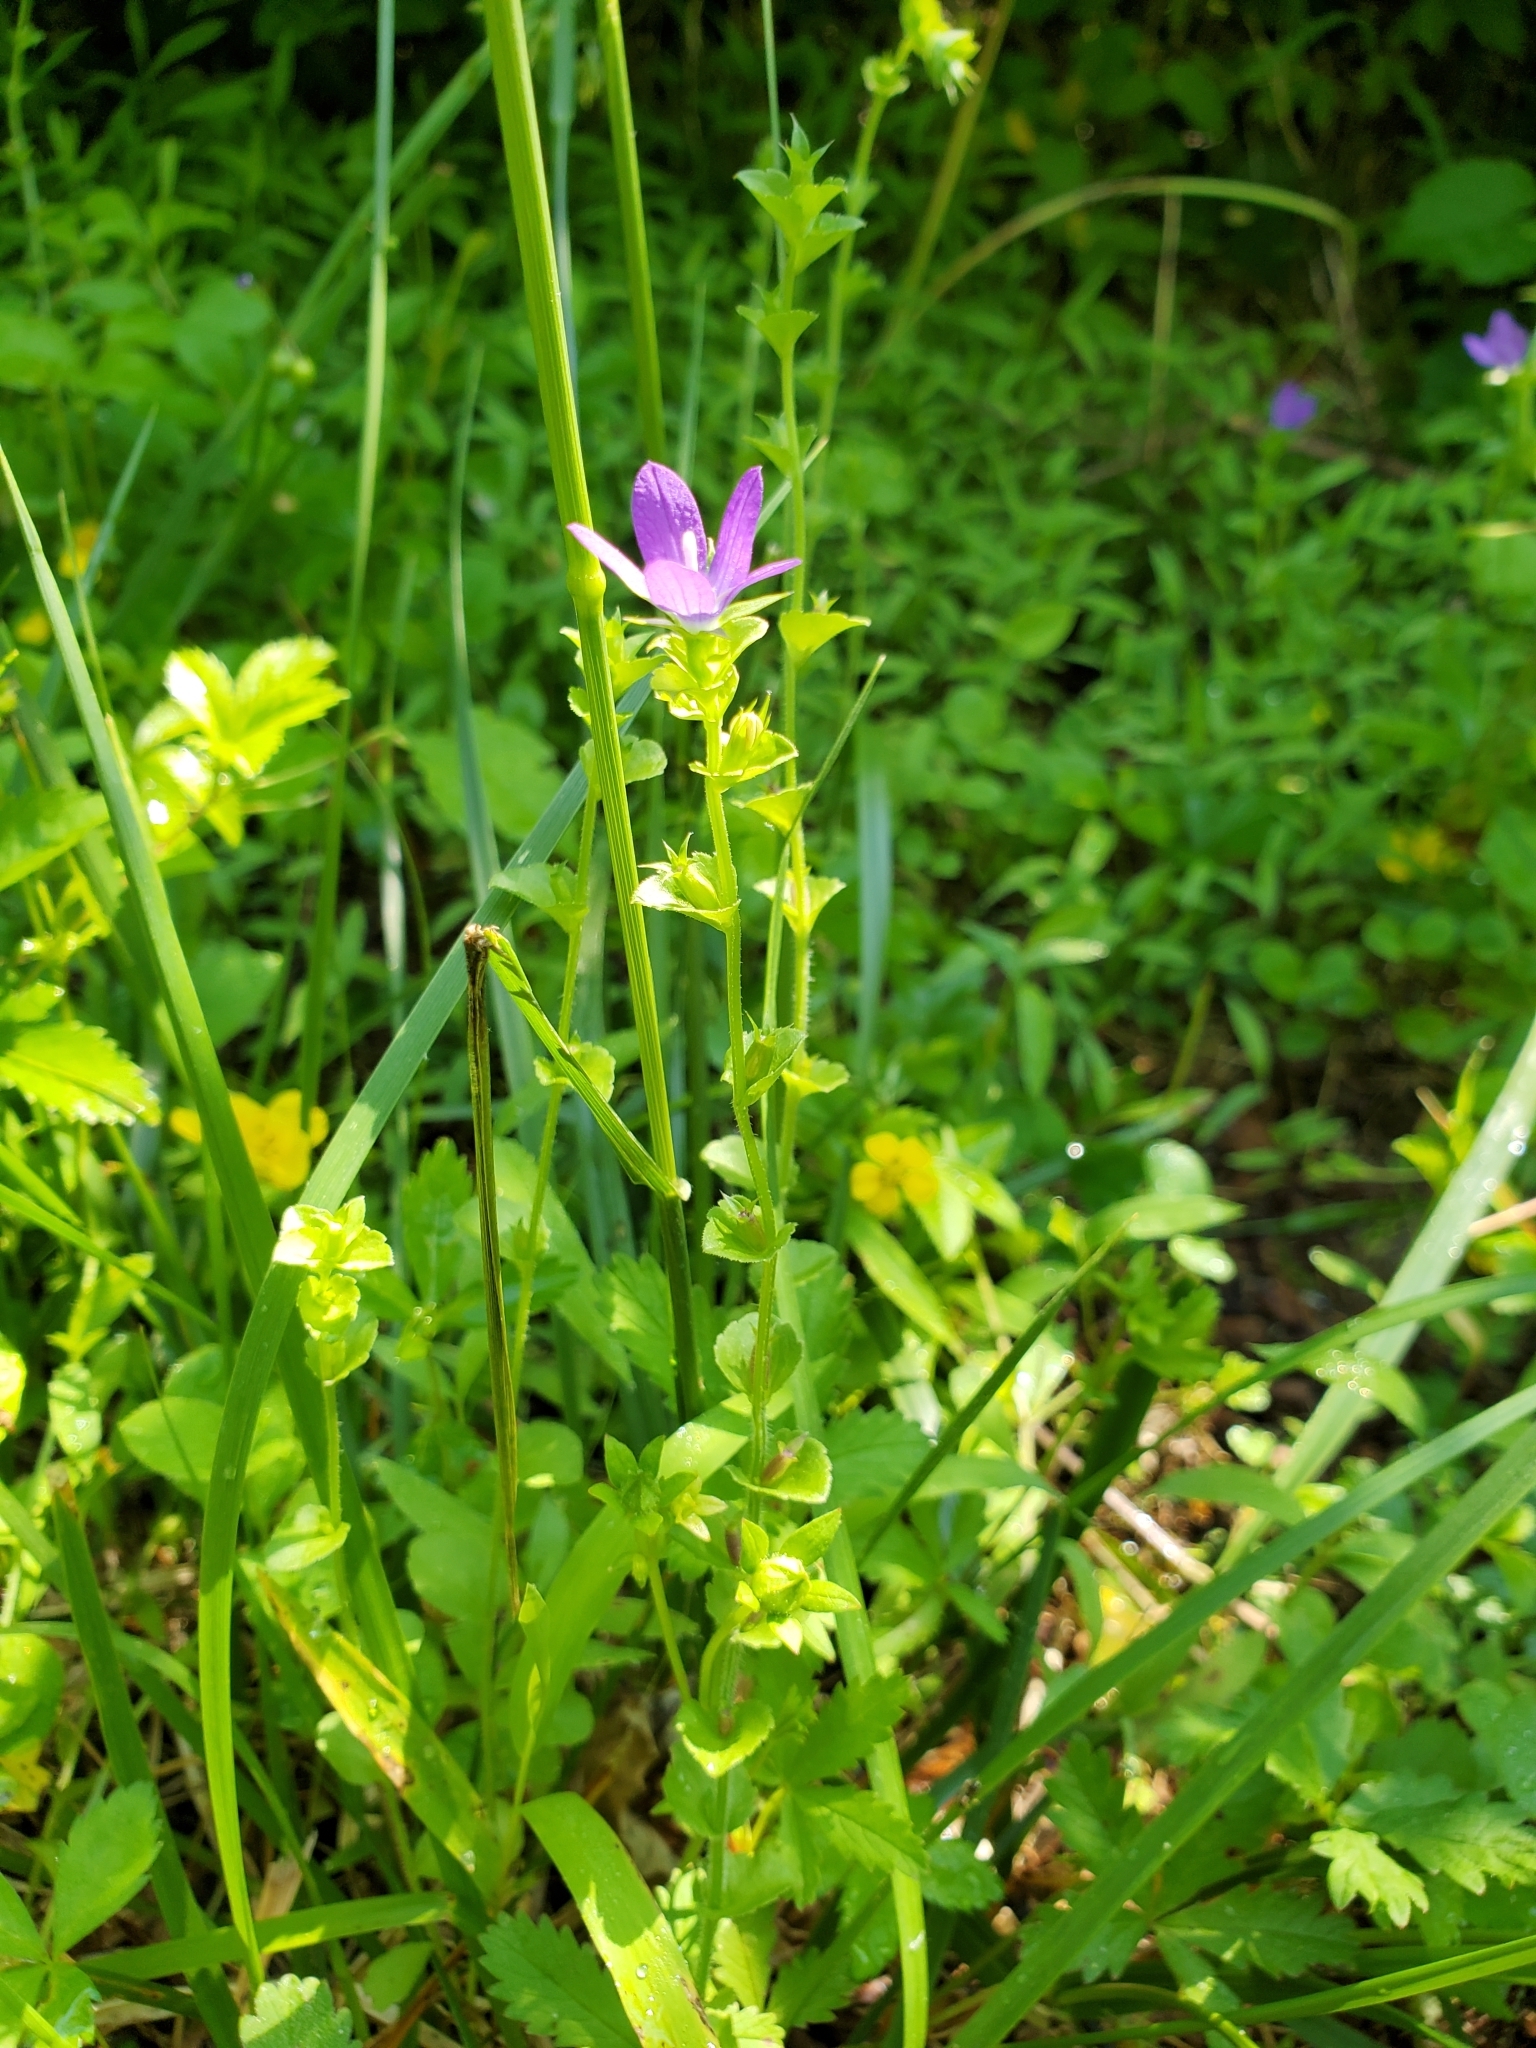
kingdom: Plantae
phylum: Tracheophyta
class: Magnoliopsida
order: Asterales
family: Campanulaceae
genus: Triodanis
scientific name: Triodanis perfoliata
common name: Clasping venus' looking-glass
